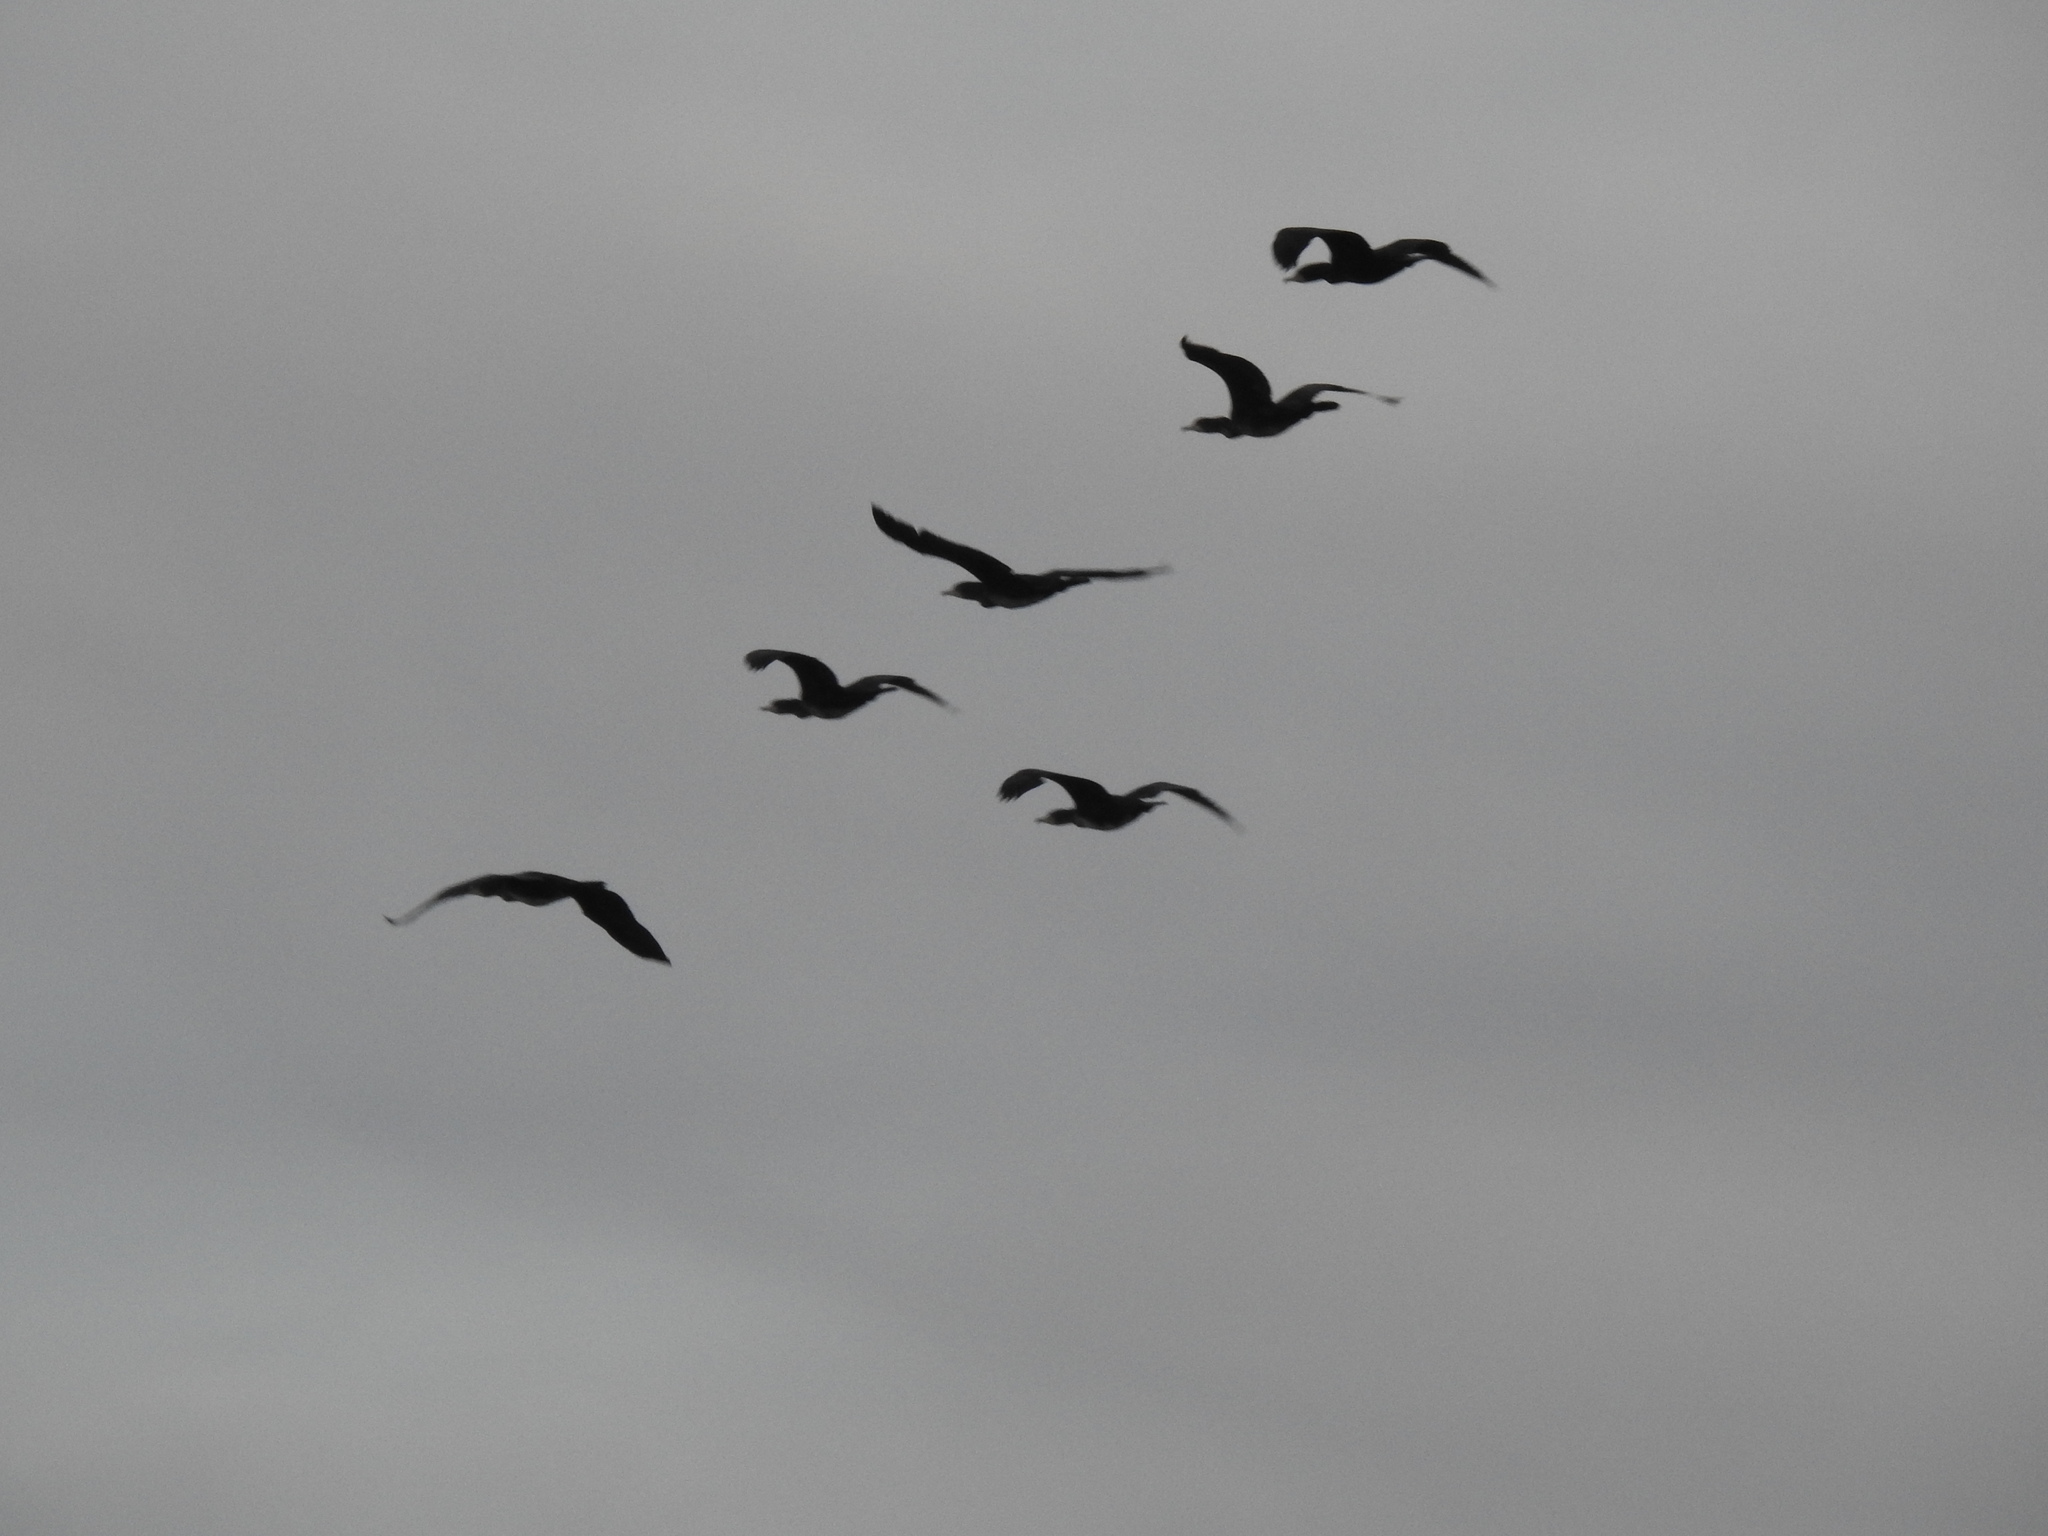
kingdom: Animalia
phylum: Chordata
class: Aves
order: Suliformes
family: Phalacrocoracidae
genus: Phalacrocorax
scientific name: Phalacrocorax carbo
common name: Great cormorant
